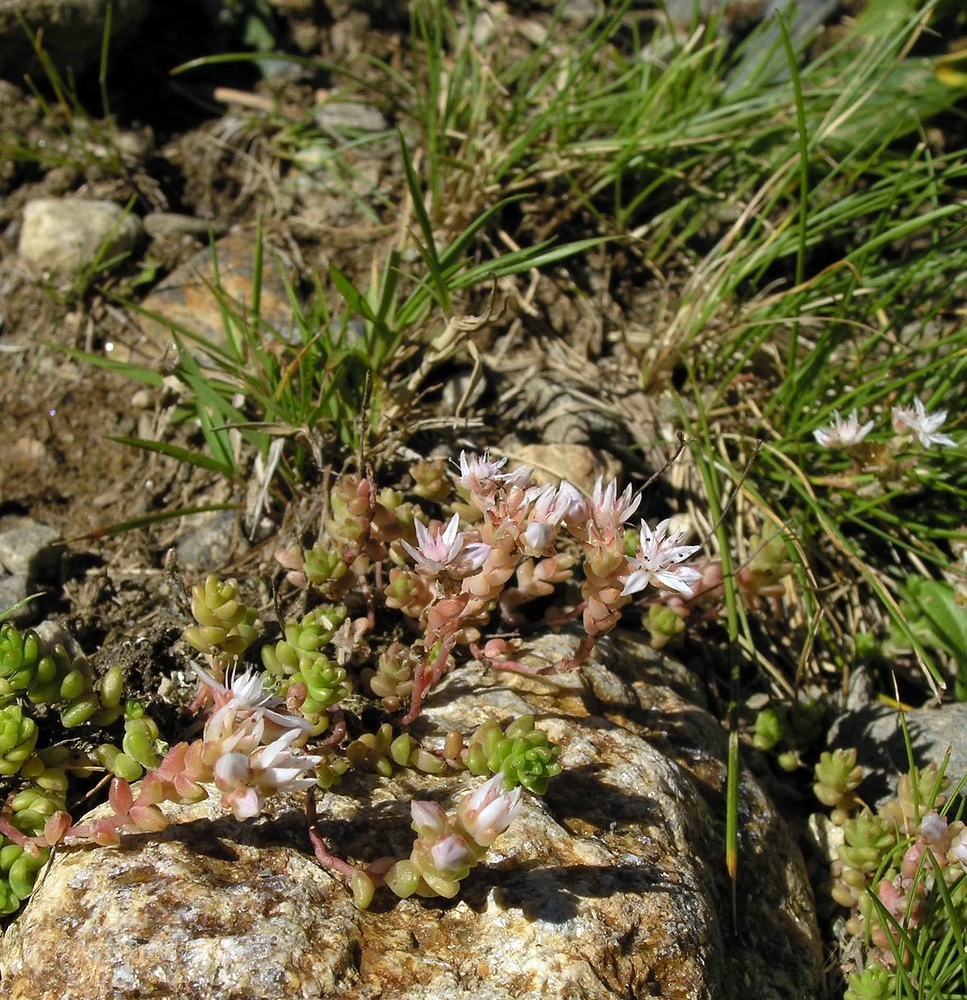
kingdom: Plantae
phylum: Tracheophyta
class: Magnoliopsida
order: Saxifragales
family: Crassulaceae
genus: Sedum
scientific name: Sedum anglicum
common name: English stonecrop
